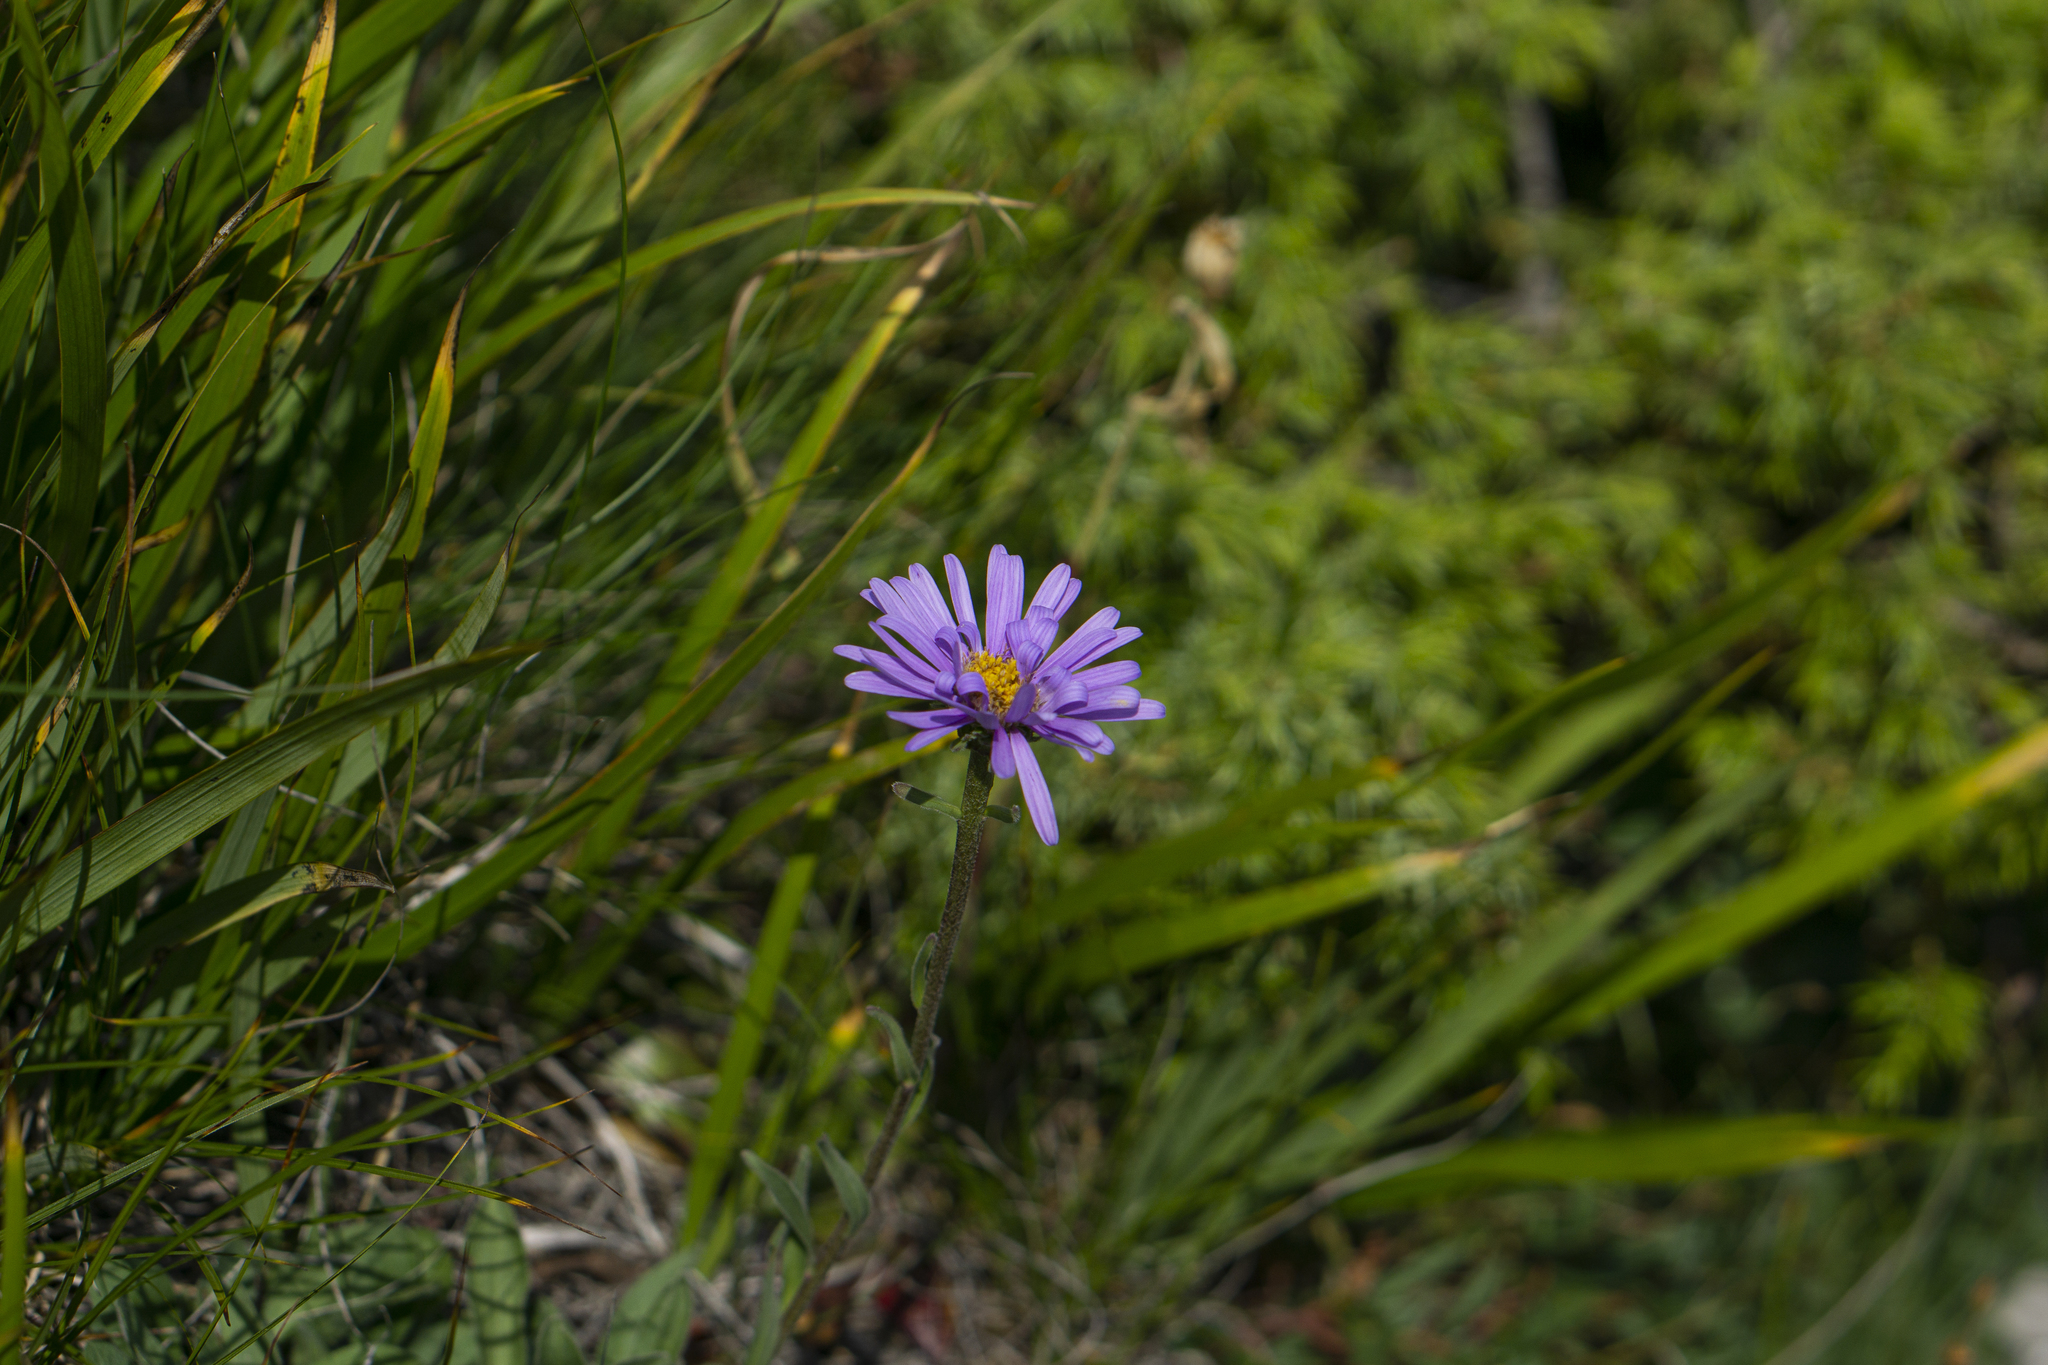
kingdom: Plantae
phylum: Tracheophyta
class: Magnoliopsida
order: Asterales
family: Asteraceae
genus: Aster
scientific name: Aster alpinus
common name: Alpine aster
